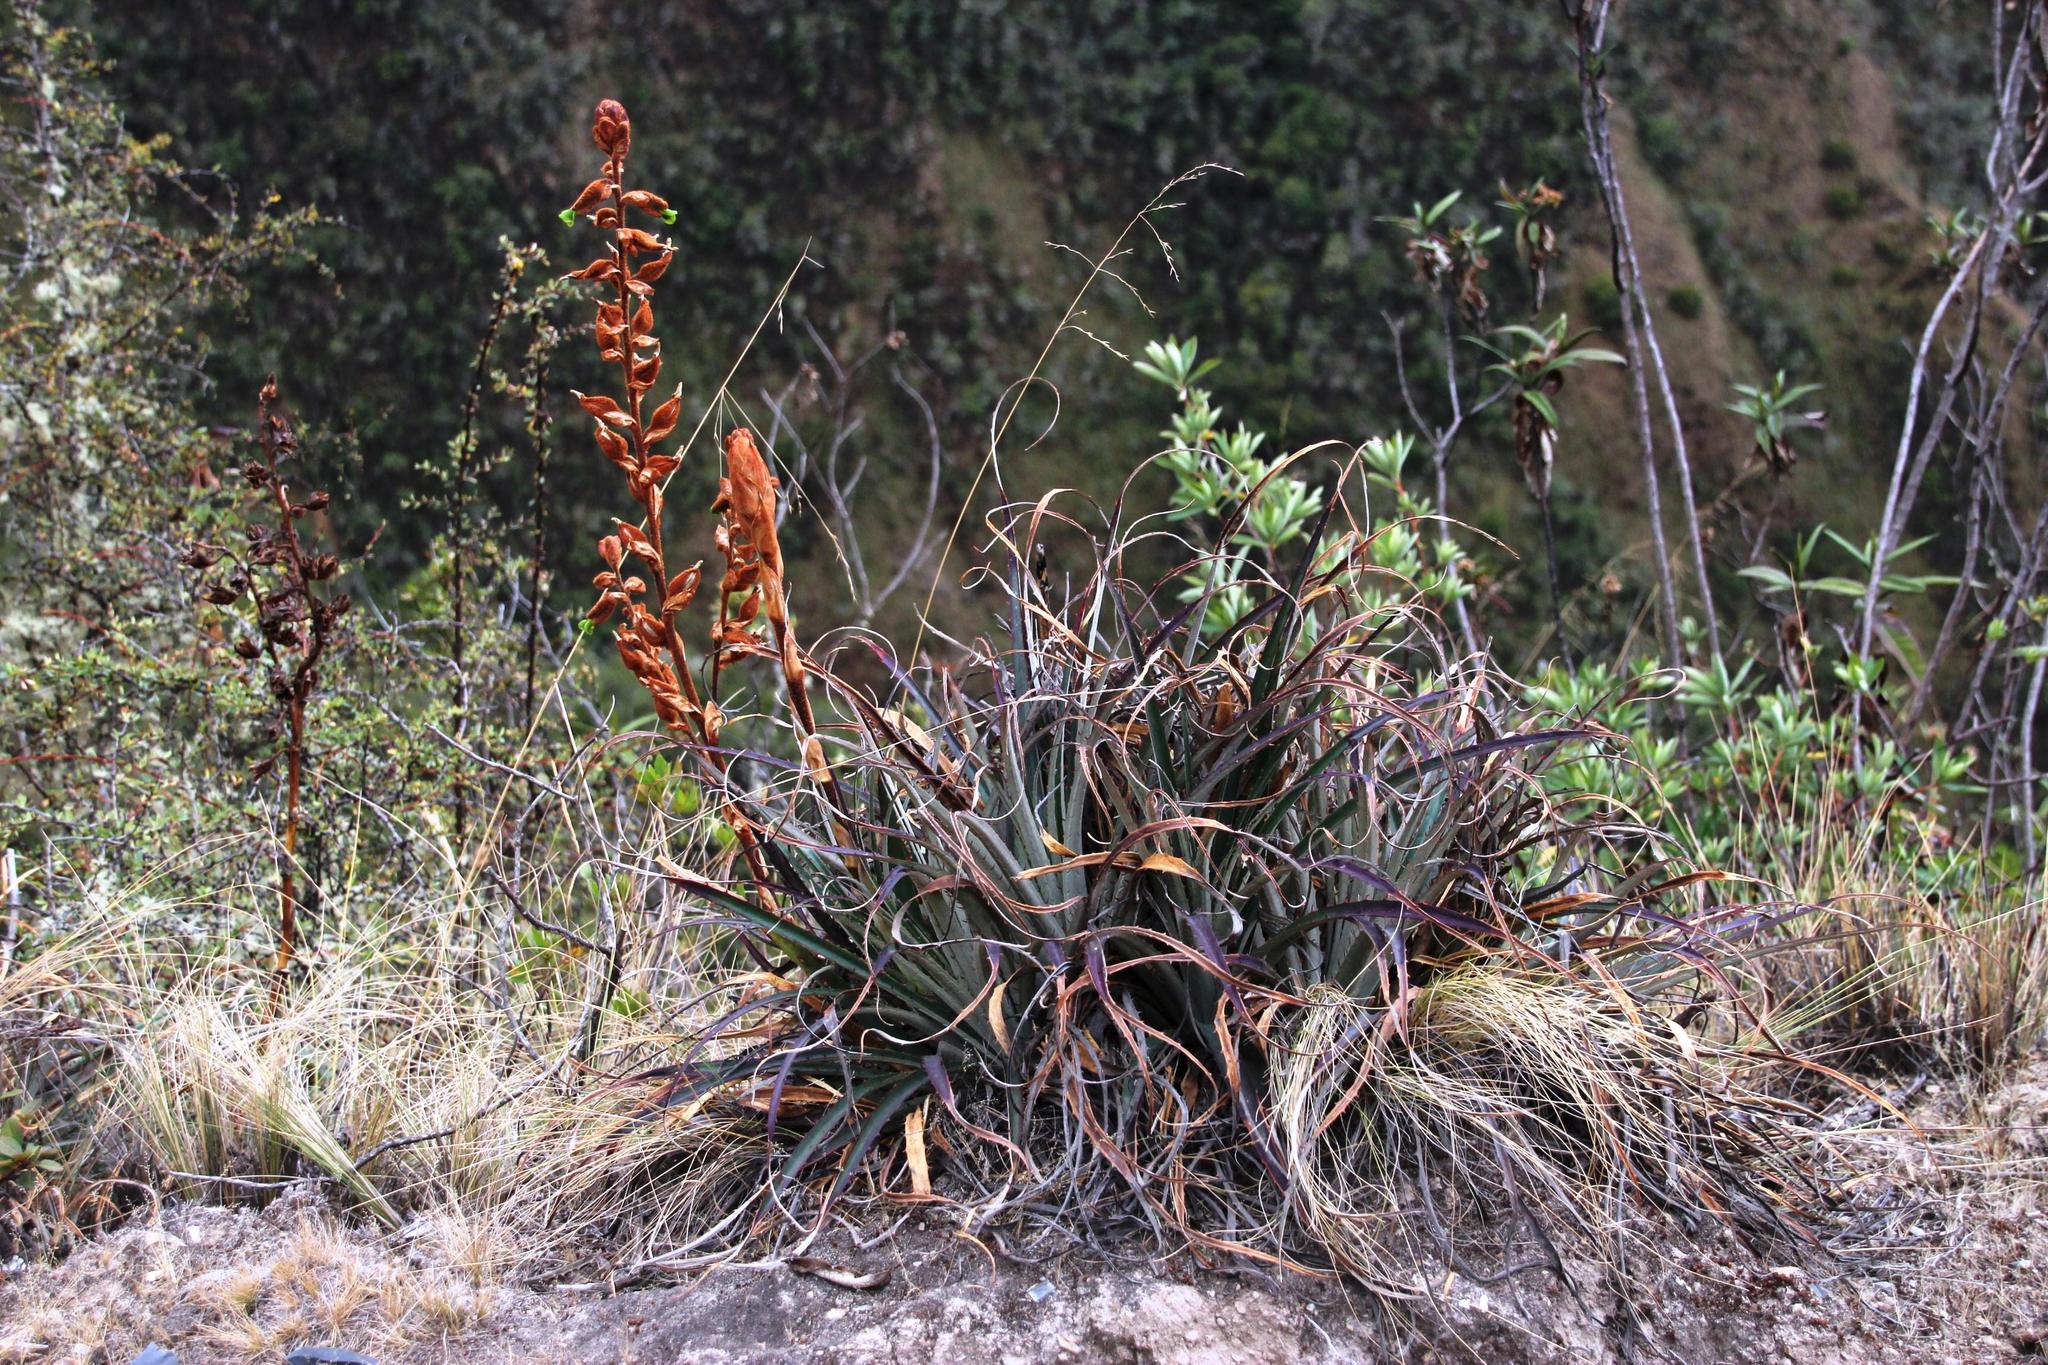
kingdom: Plantae
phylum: Tracheophyta
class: Liliopsida
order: Poales
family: Bromeliaceae
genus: Puya
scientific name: Puya ferruginea
